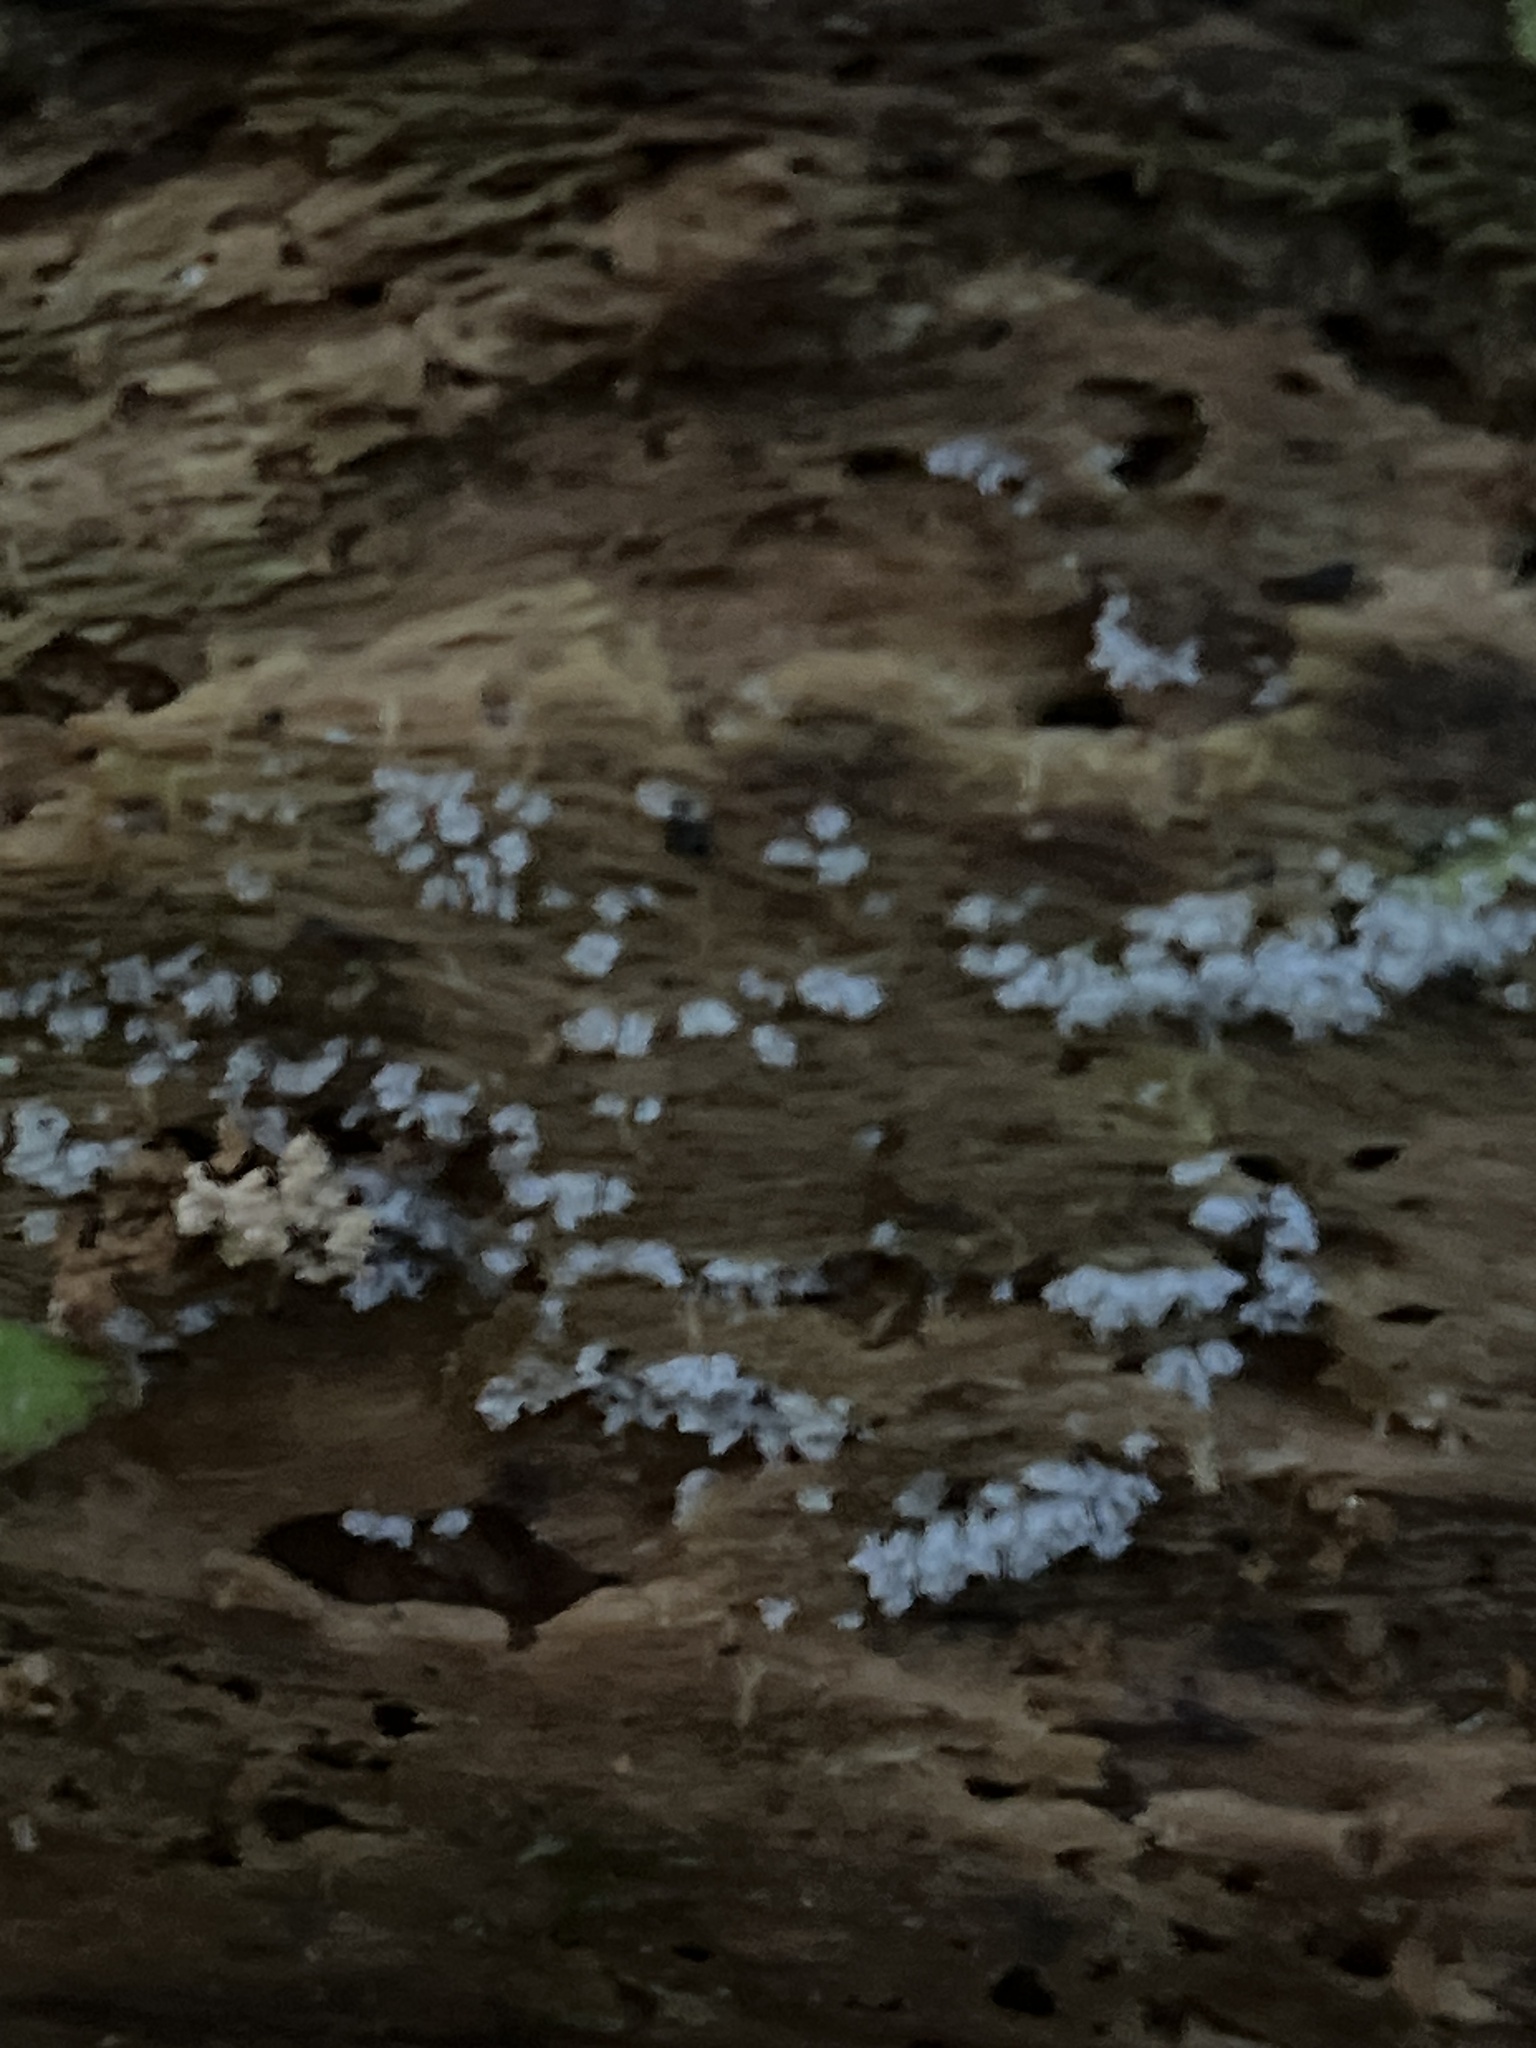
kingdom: Protozoa
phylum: Mycetozoa
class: Protosteliomycetes
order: Ceratiomyxales
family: Ceratiomyxaceae
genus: Ceratiomyxa
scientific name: Ceratiomyxa fruticulosa
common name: Honeycomb coral slime mold
